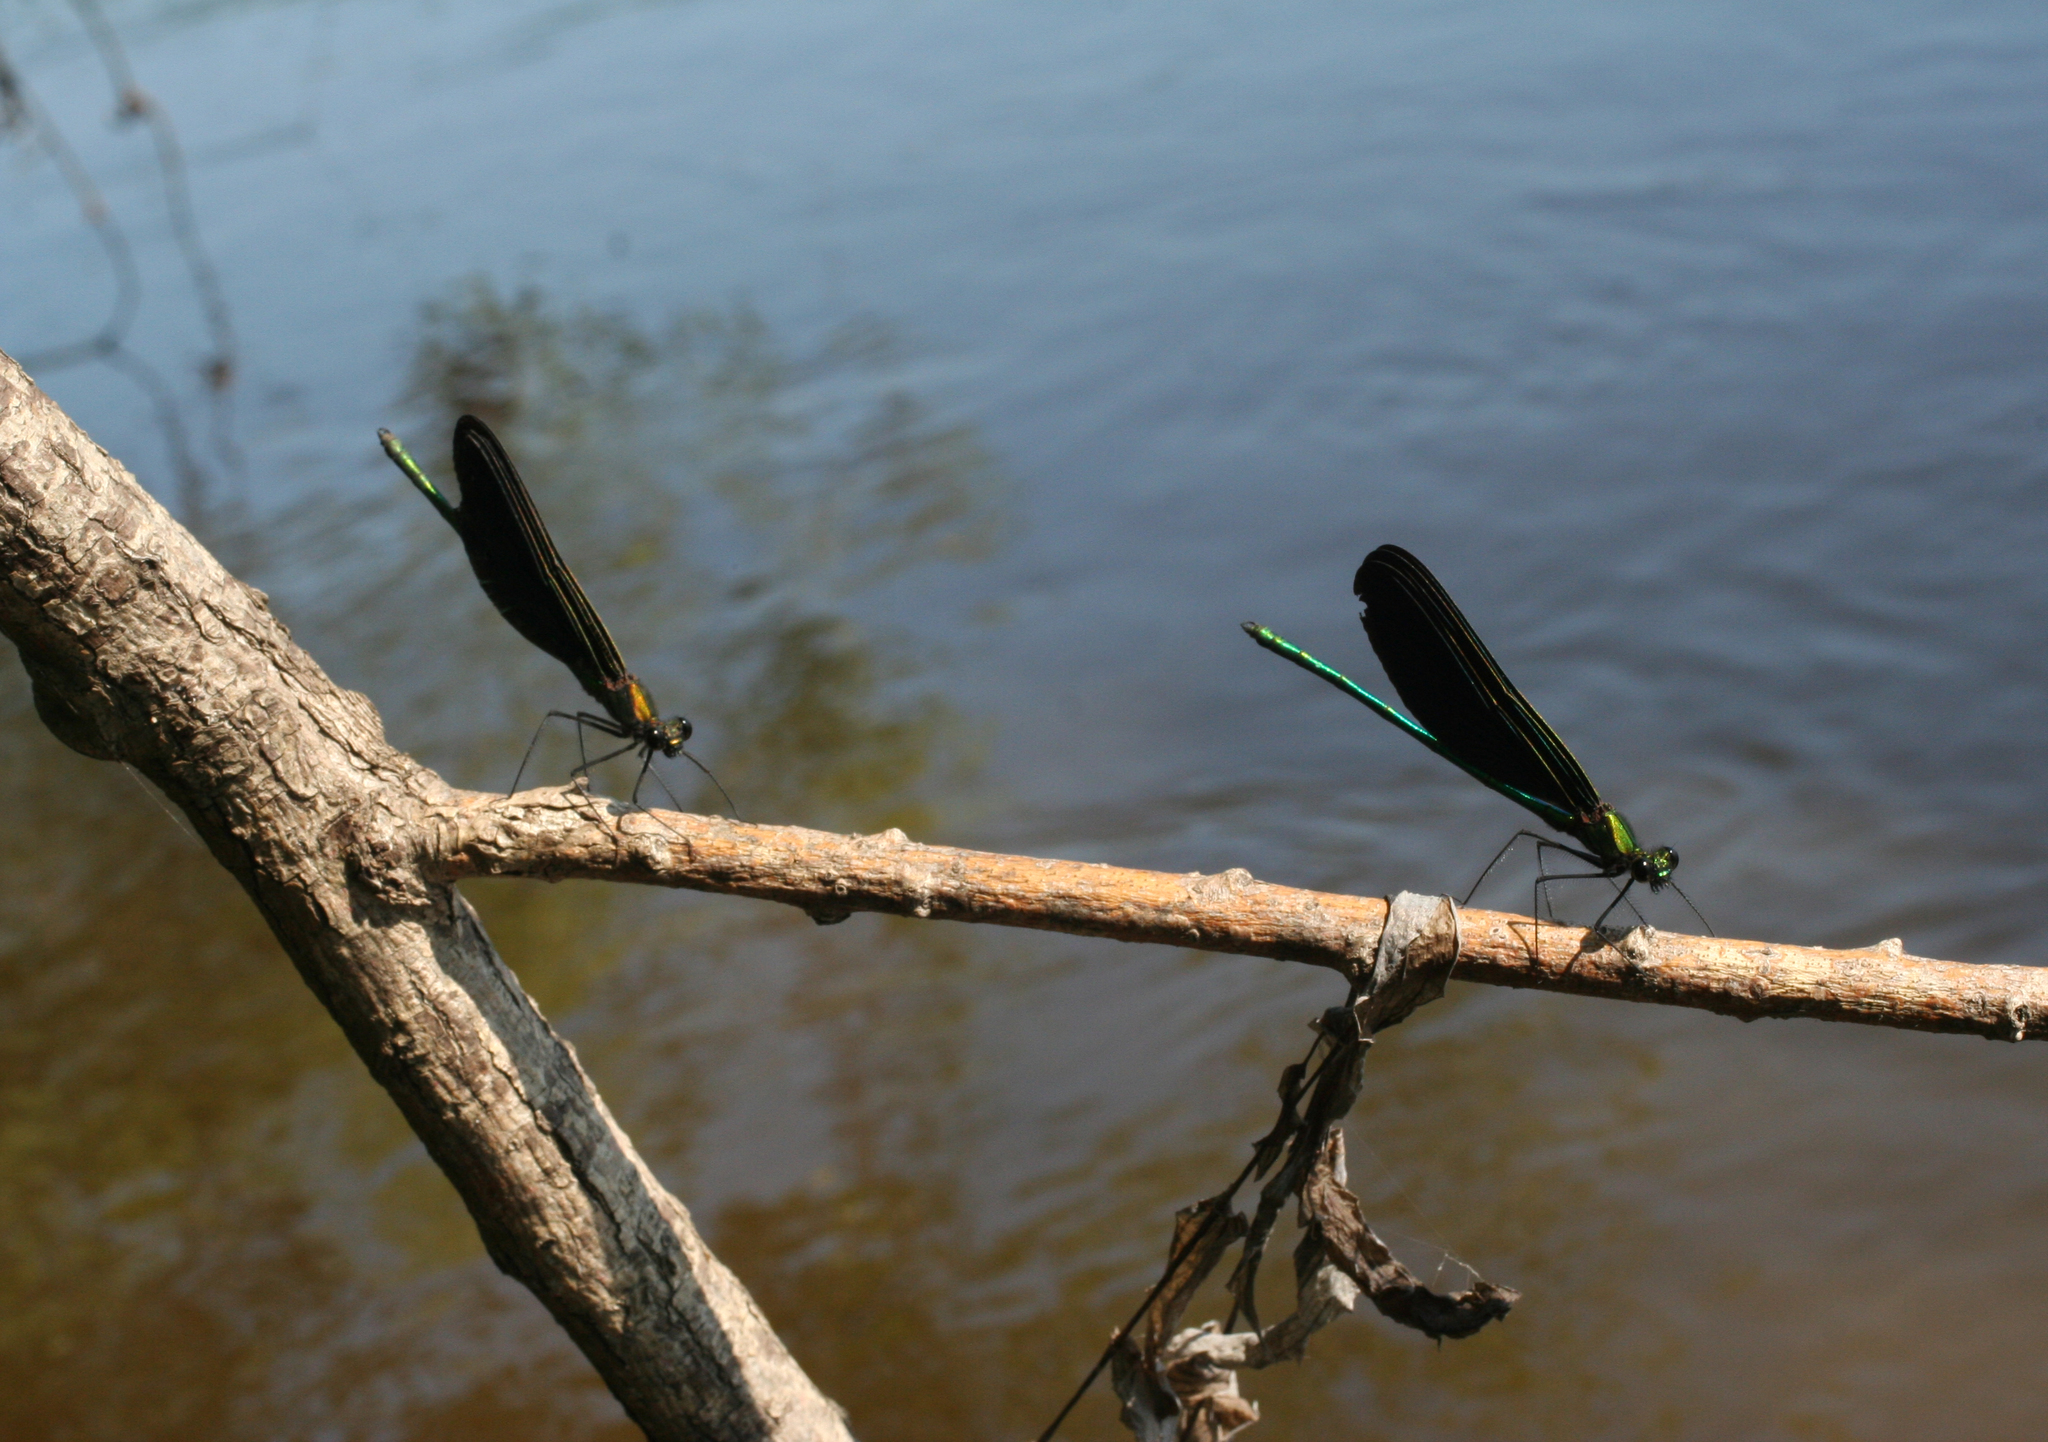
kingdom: Animalia
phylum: Arthropoda
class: Insecta
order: Odonata
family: Calopterygidae
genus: Calopteryx
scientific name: Calopteryx japonica
